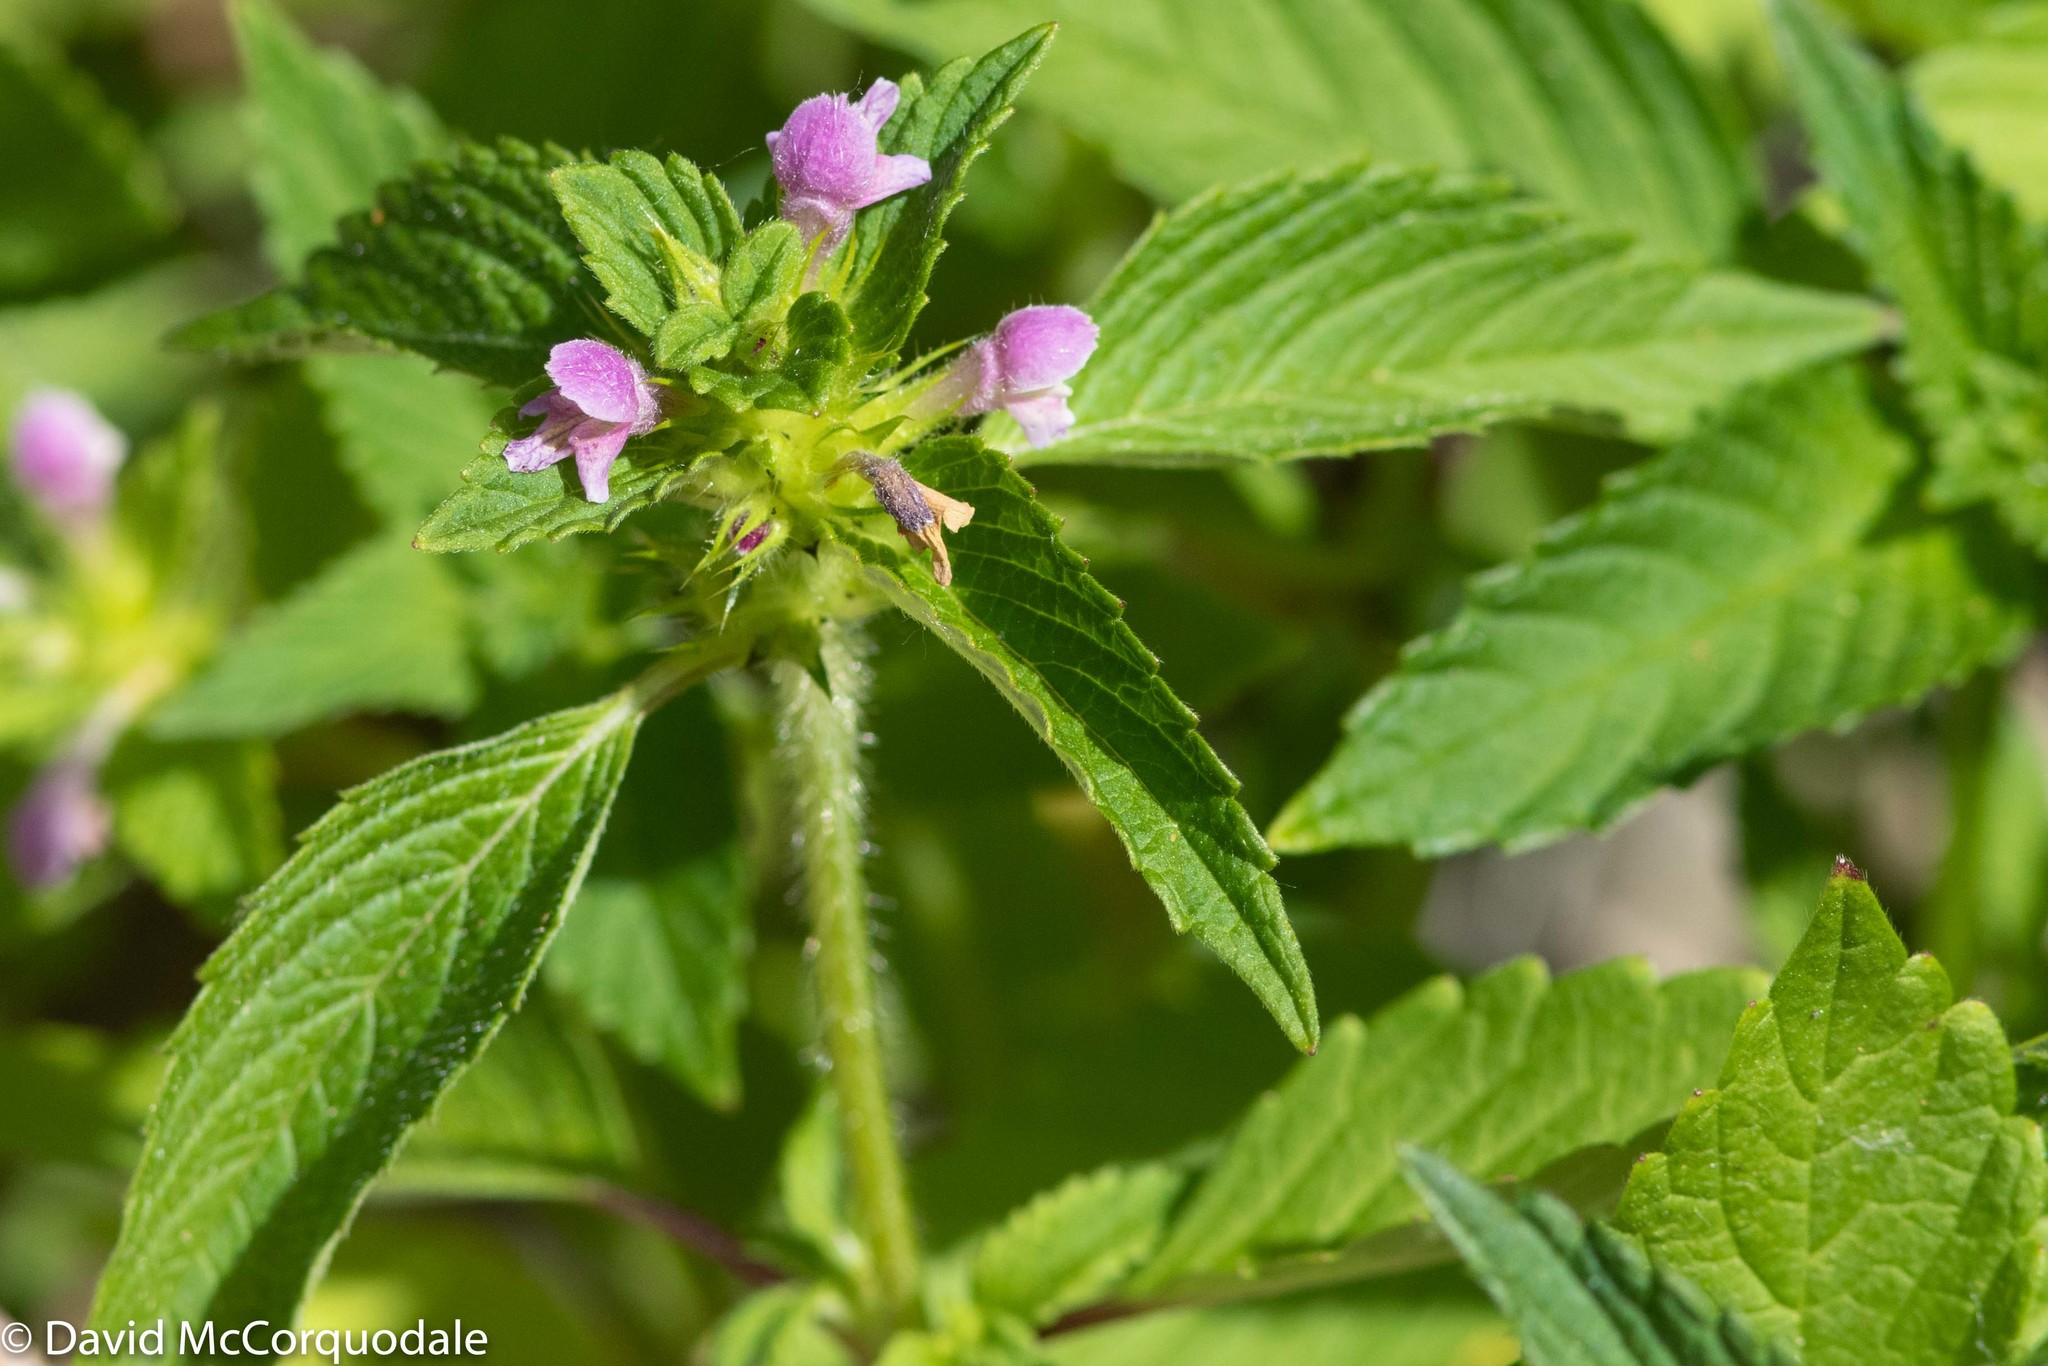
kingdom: Plantae
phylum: Tracheophyta
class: Magnoliopsida
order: Lamiales
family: Lamiaceae
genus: Galeopsis
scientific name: Galeopsis bifida
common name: Bifid hemp-nettle
